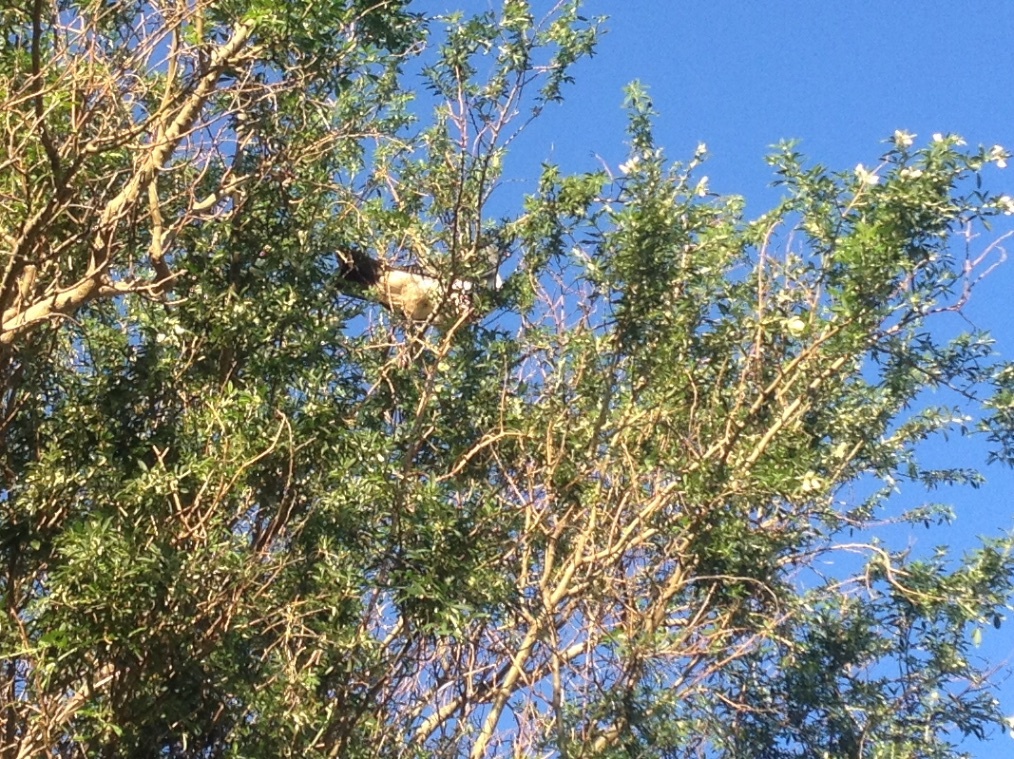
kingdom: Animalia
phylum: Chordata
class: Aves
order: Columbiformes
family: Columbidae
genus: Hemiphaga
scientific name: Hemiphaga novaeseelandiae
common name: New zealand pigeon
